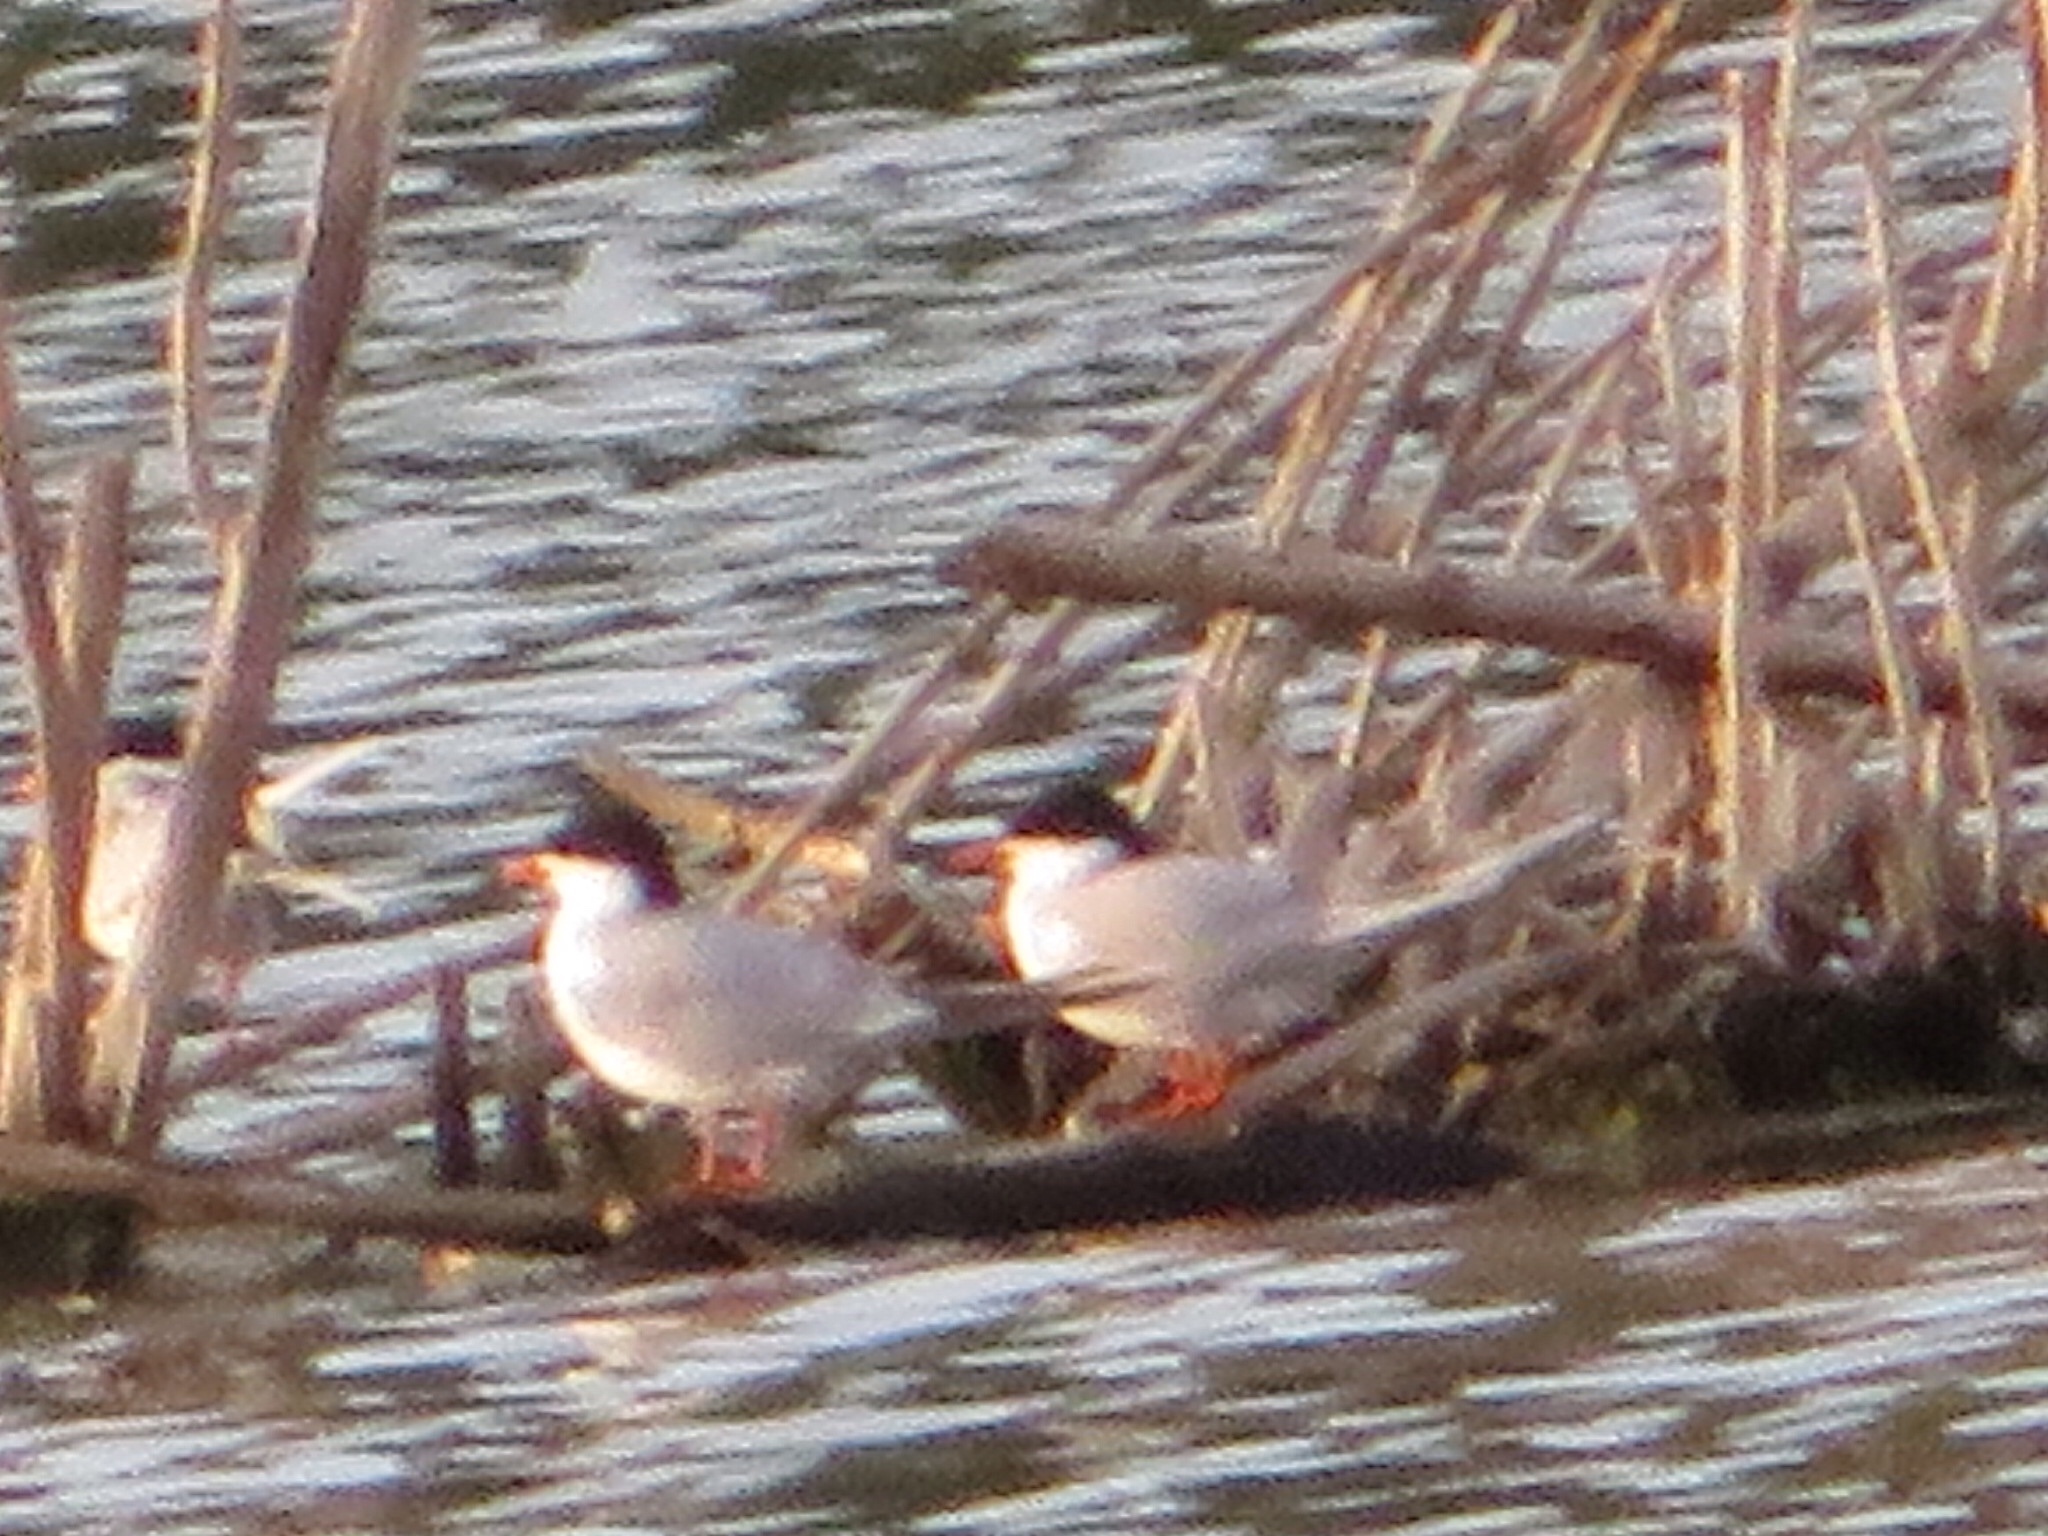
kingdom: Animalia
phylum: Chordata
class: Aves
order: Charadriiformes
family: Laridae
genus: Sterna
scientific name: Sterna forsteri
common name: Forster's tern
